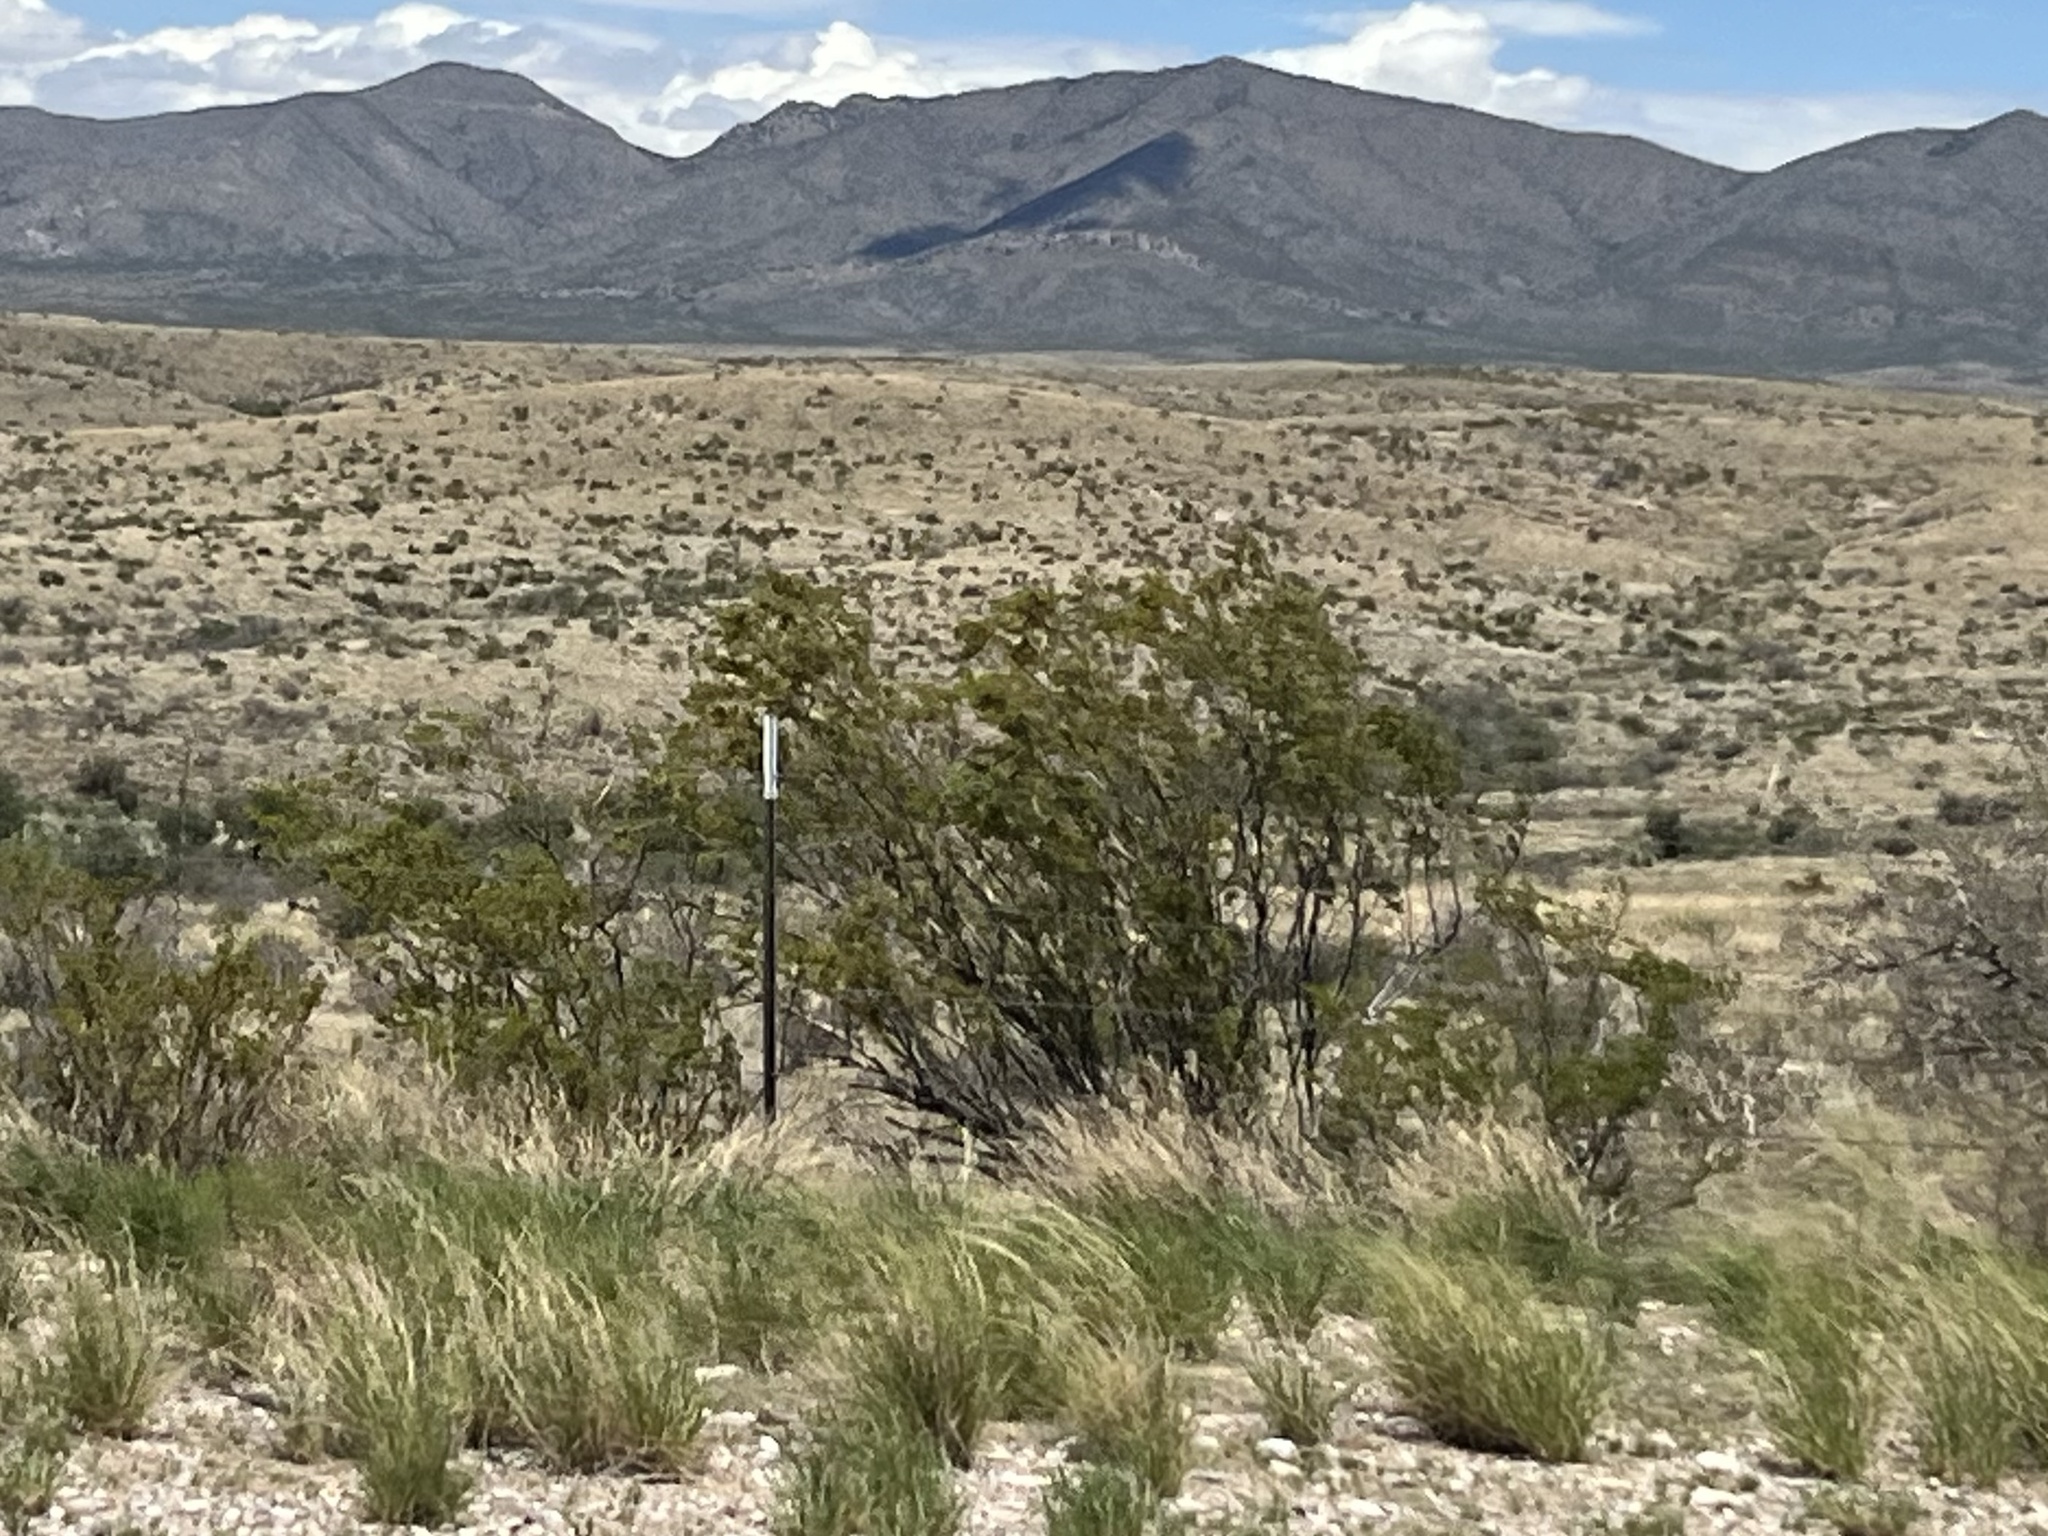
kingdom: Plantae
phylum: Tracheophyta
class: Magnoliopsida
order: Zygophyllales
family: Zygophyllaceae
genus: Larrea
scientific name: Larrea tridentata
